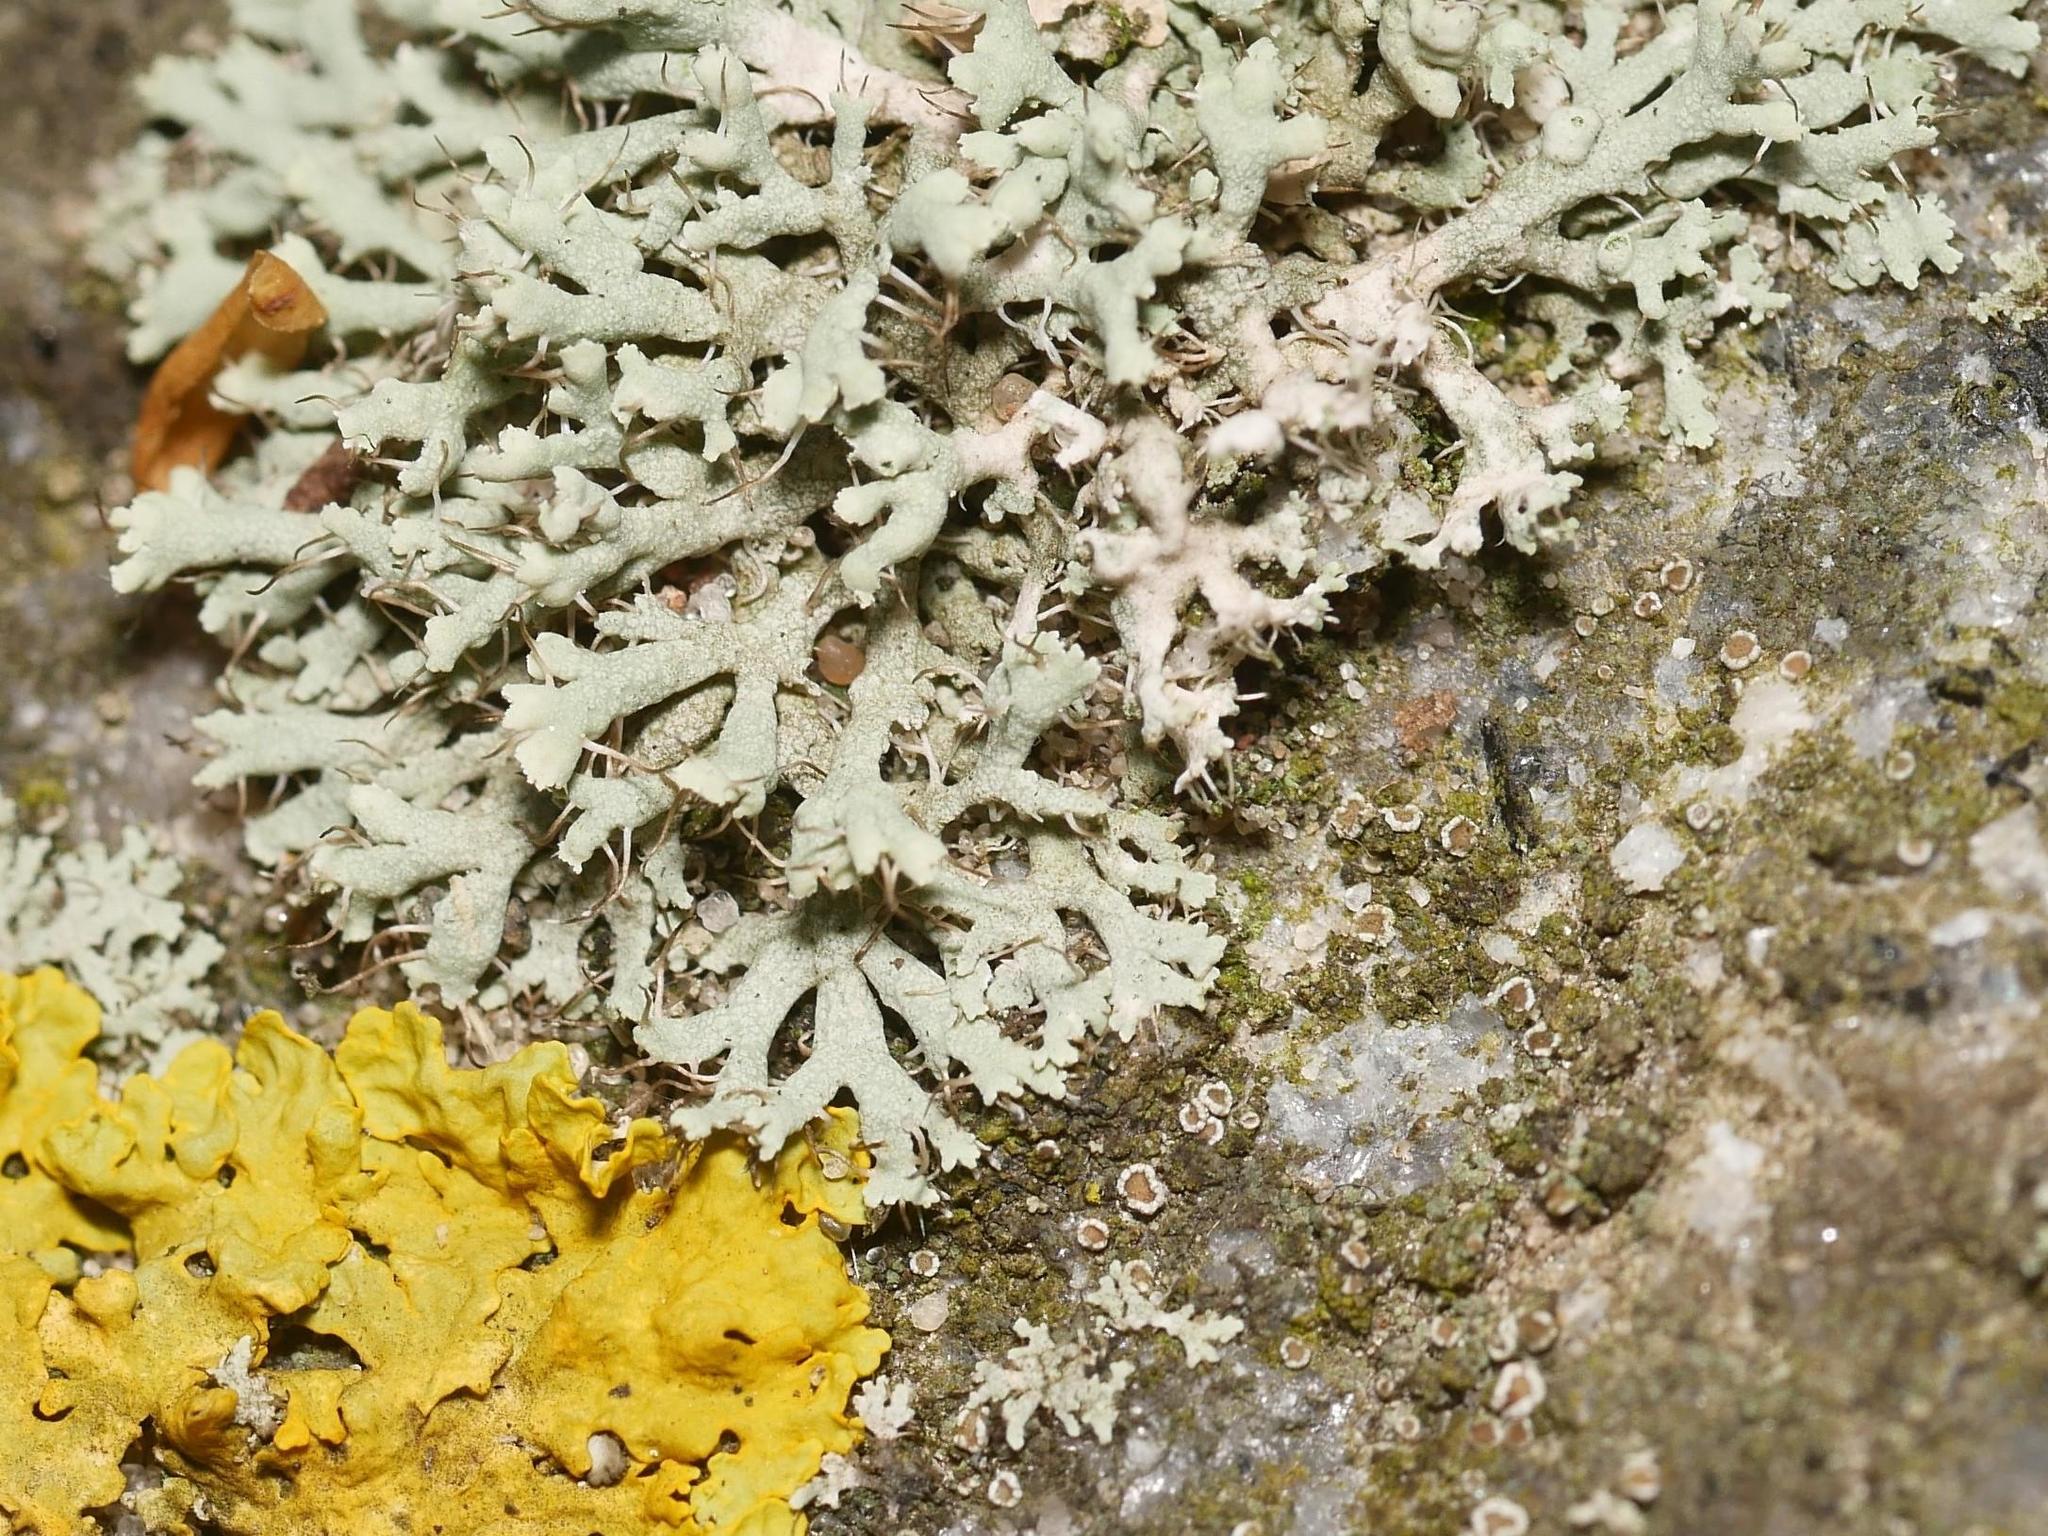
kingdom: Fungi
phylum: Ascomycota
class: Lecanoromycetes
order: Caliciales
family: Physciaceae
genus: Physcia
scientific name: Physcia adscendens
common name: Hooded rosette lichen
